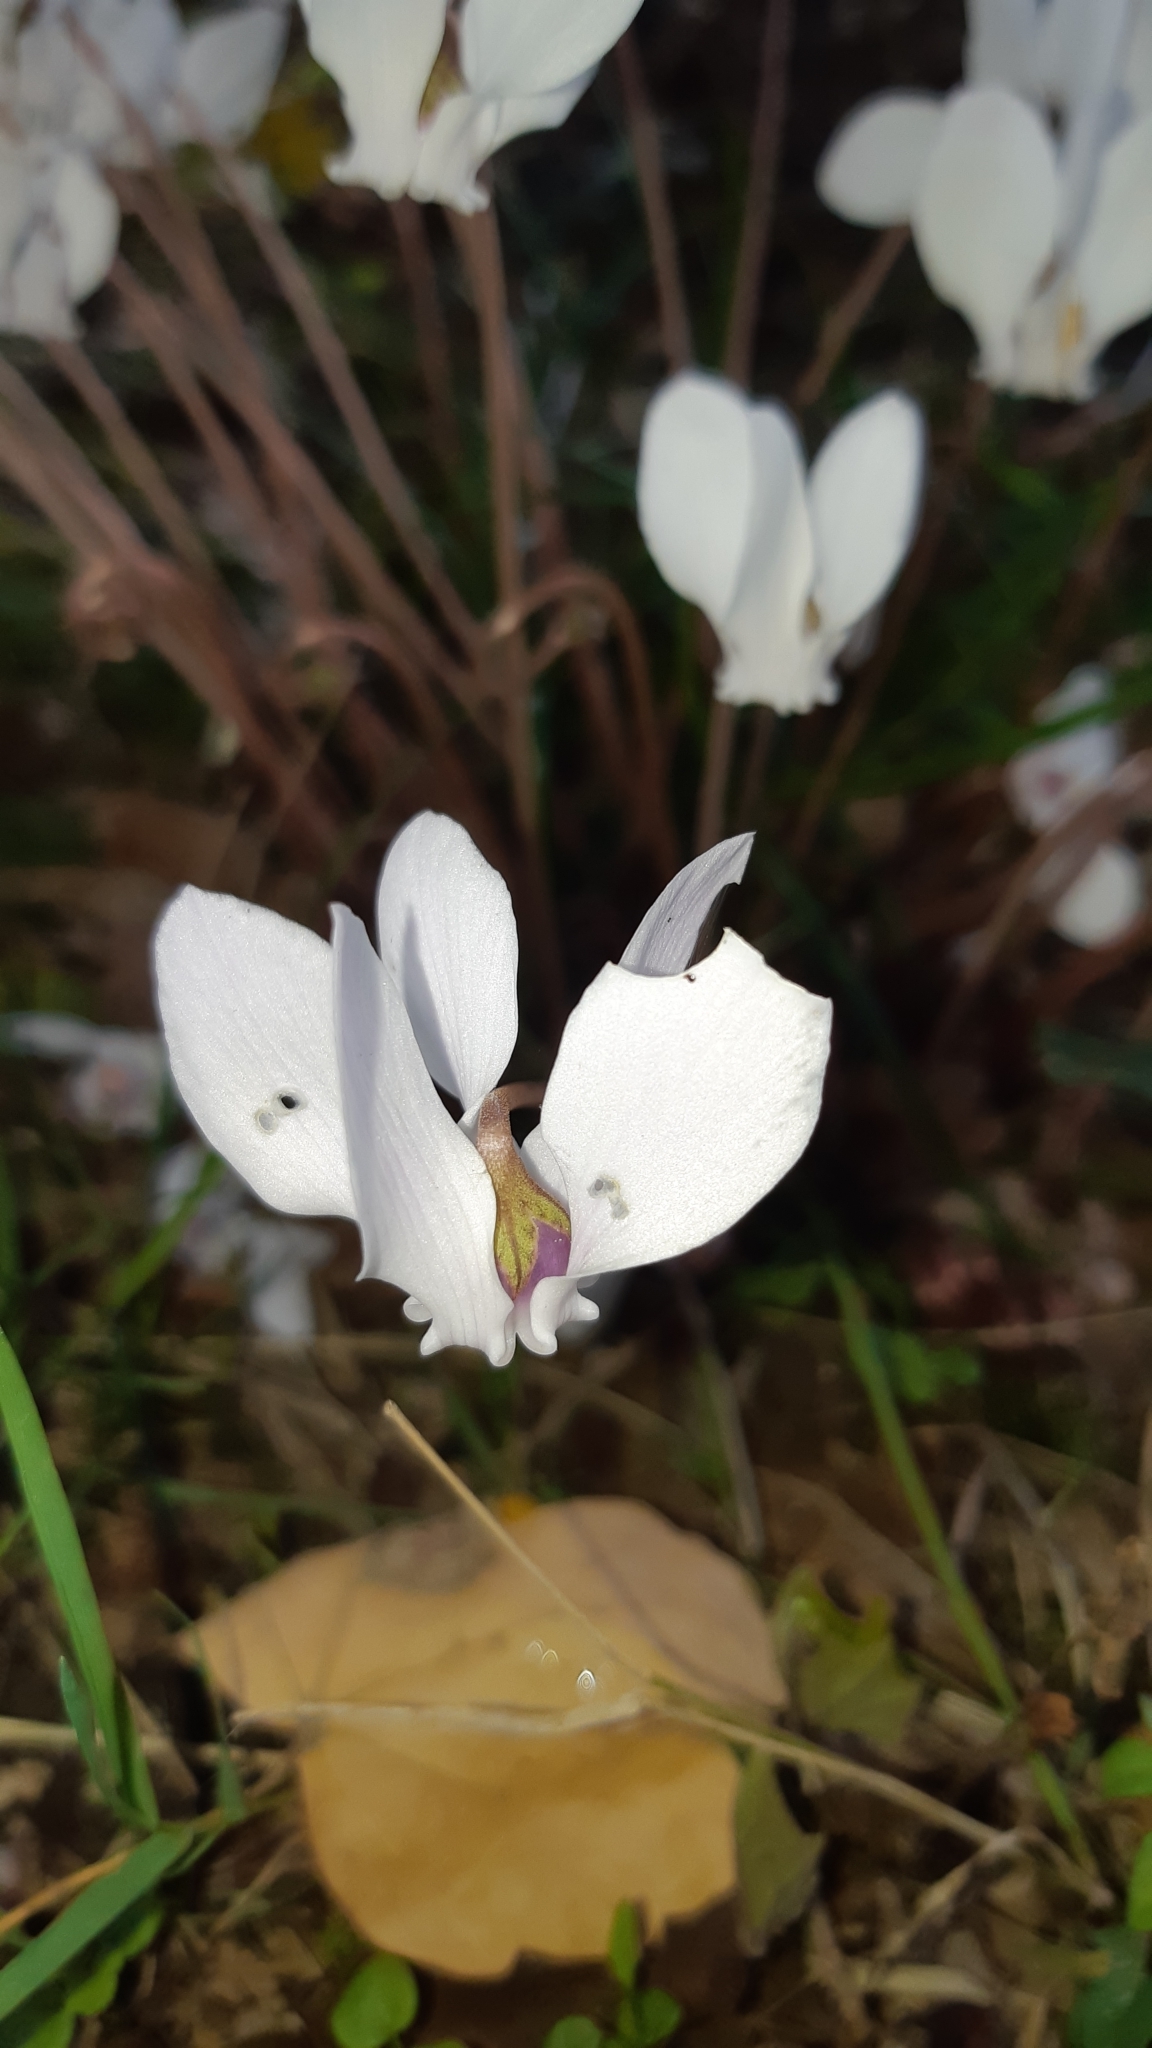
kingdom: Plantae
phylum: Tracheophyta
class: Magnoliopsida
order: Ericales
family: Primulaceae
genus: Cyclamen
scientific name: Cyclamen hederifolium
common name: Sowbread
